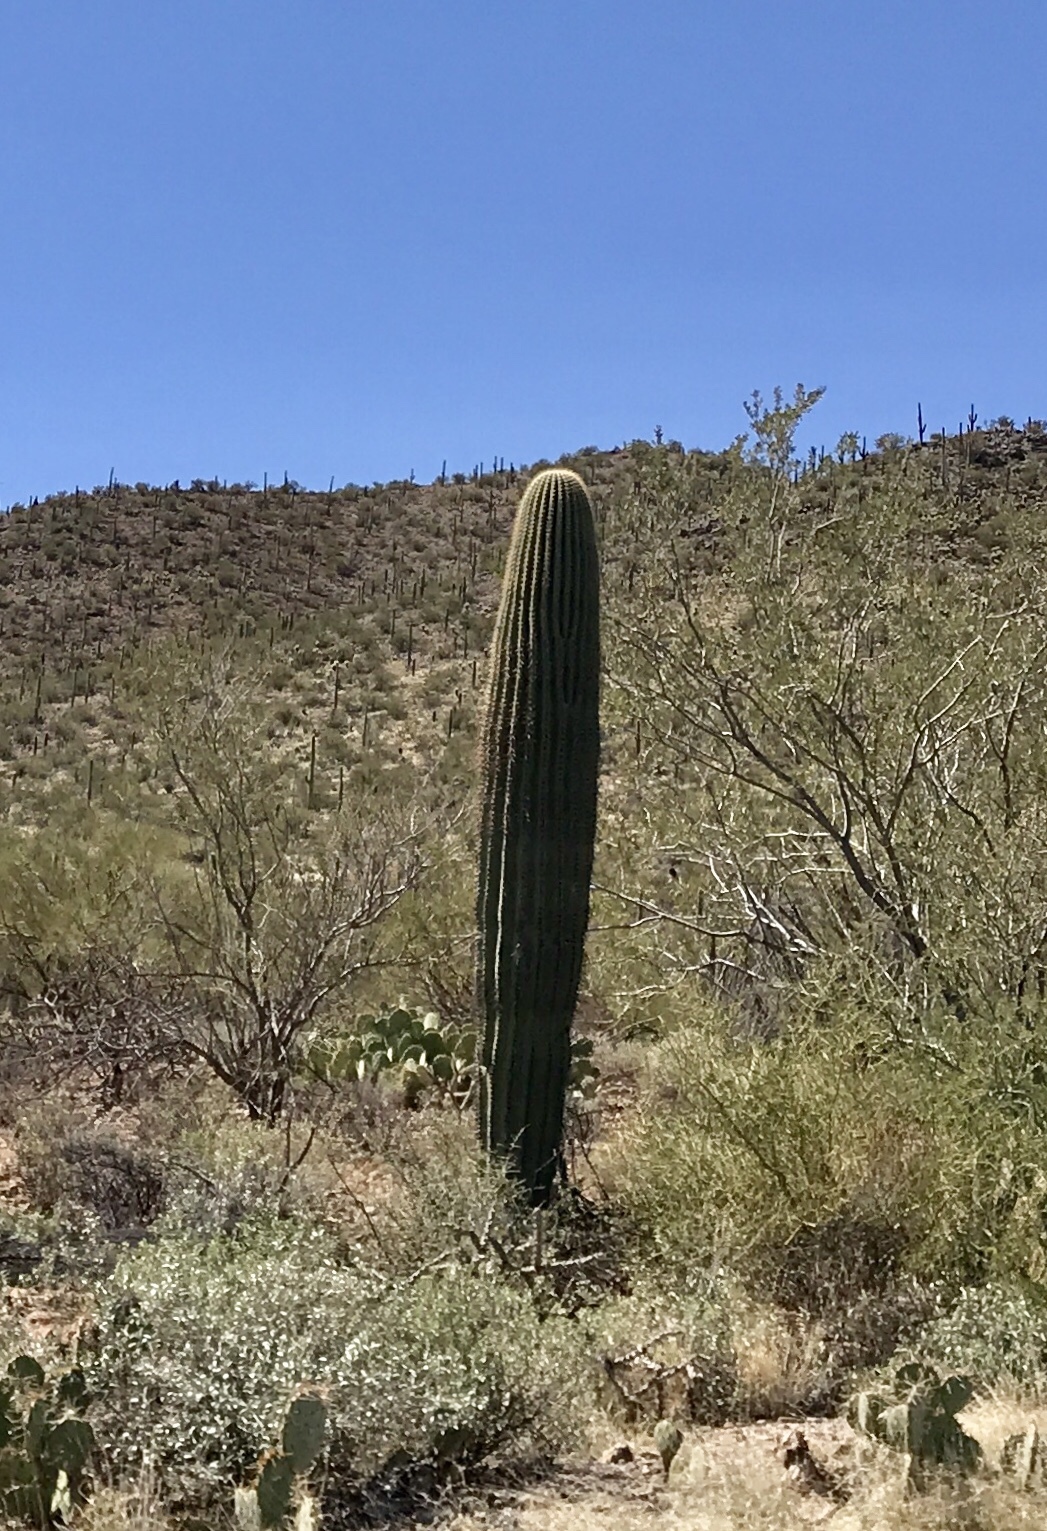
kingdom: Plantae
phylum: Tracheophyta
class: Magnoliopsida
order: Caryophyllales
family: Cactaceae
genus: Carnegiea
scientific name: Carnegiea gigantea
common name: Saguaro
